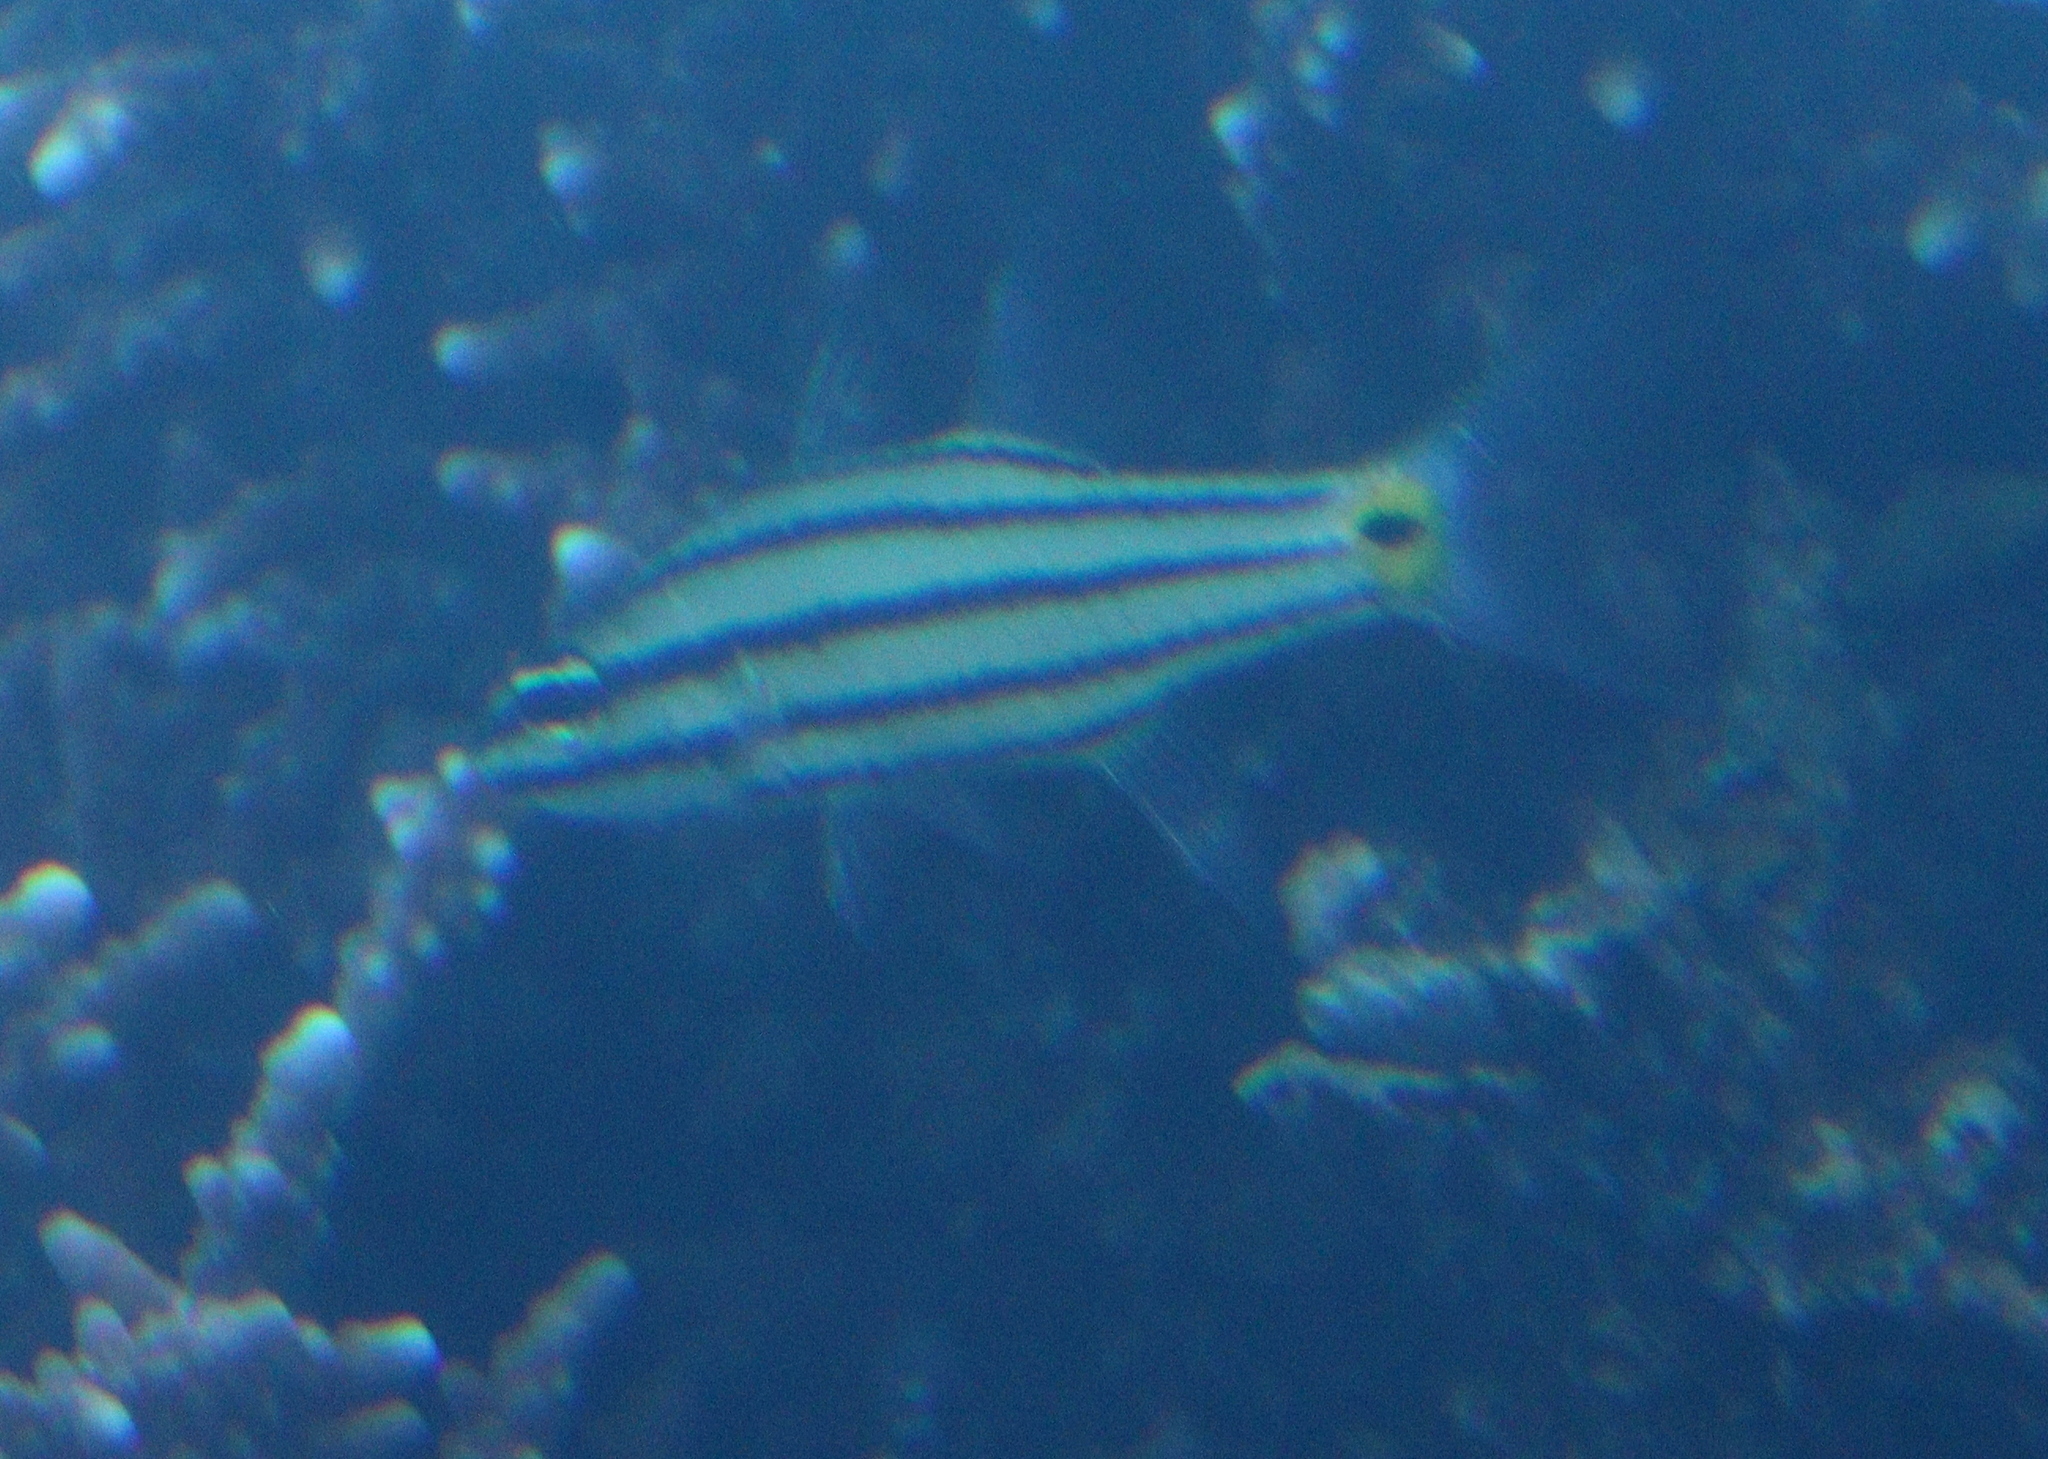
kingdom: Animalia
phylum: Chordata
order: Perciformes
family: Apogonidae
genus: Cheilodipterus
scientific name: Cheilodipterus quinquelineatus
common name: Five-lined cardinalfish
